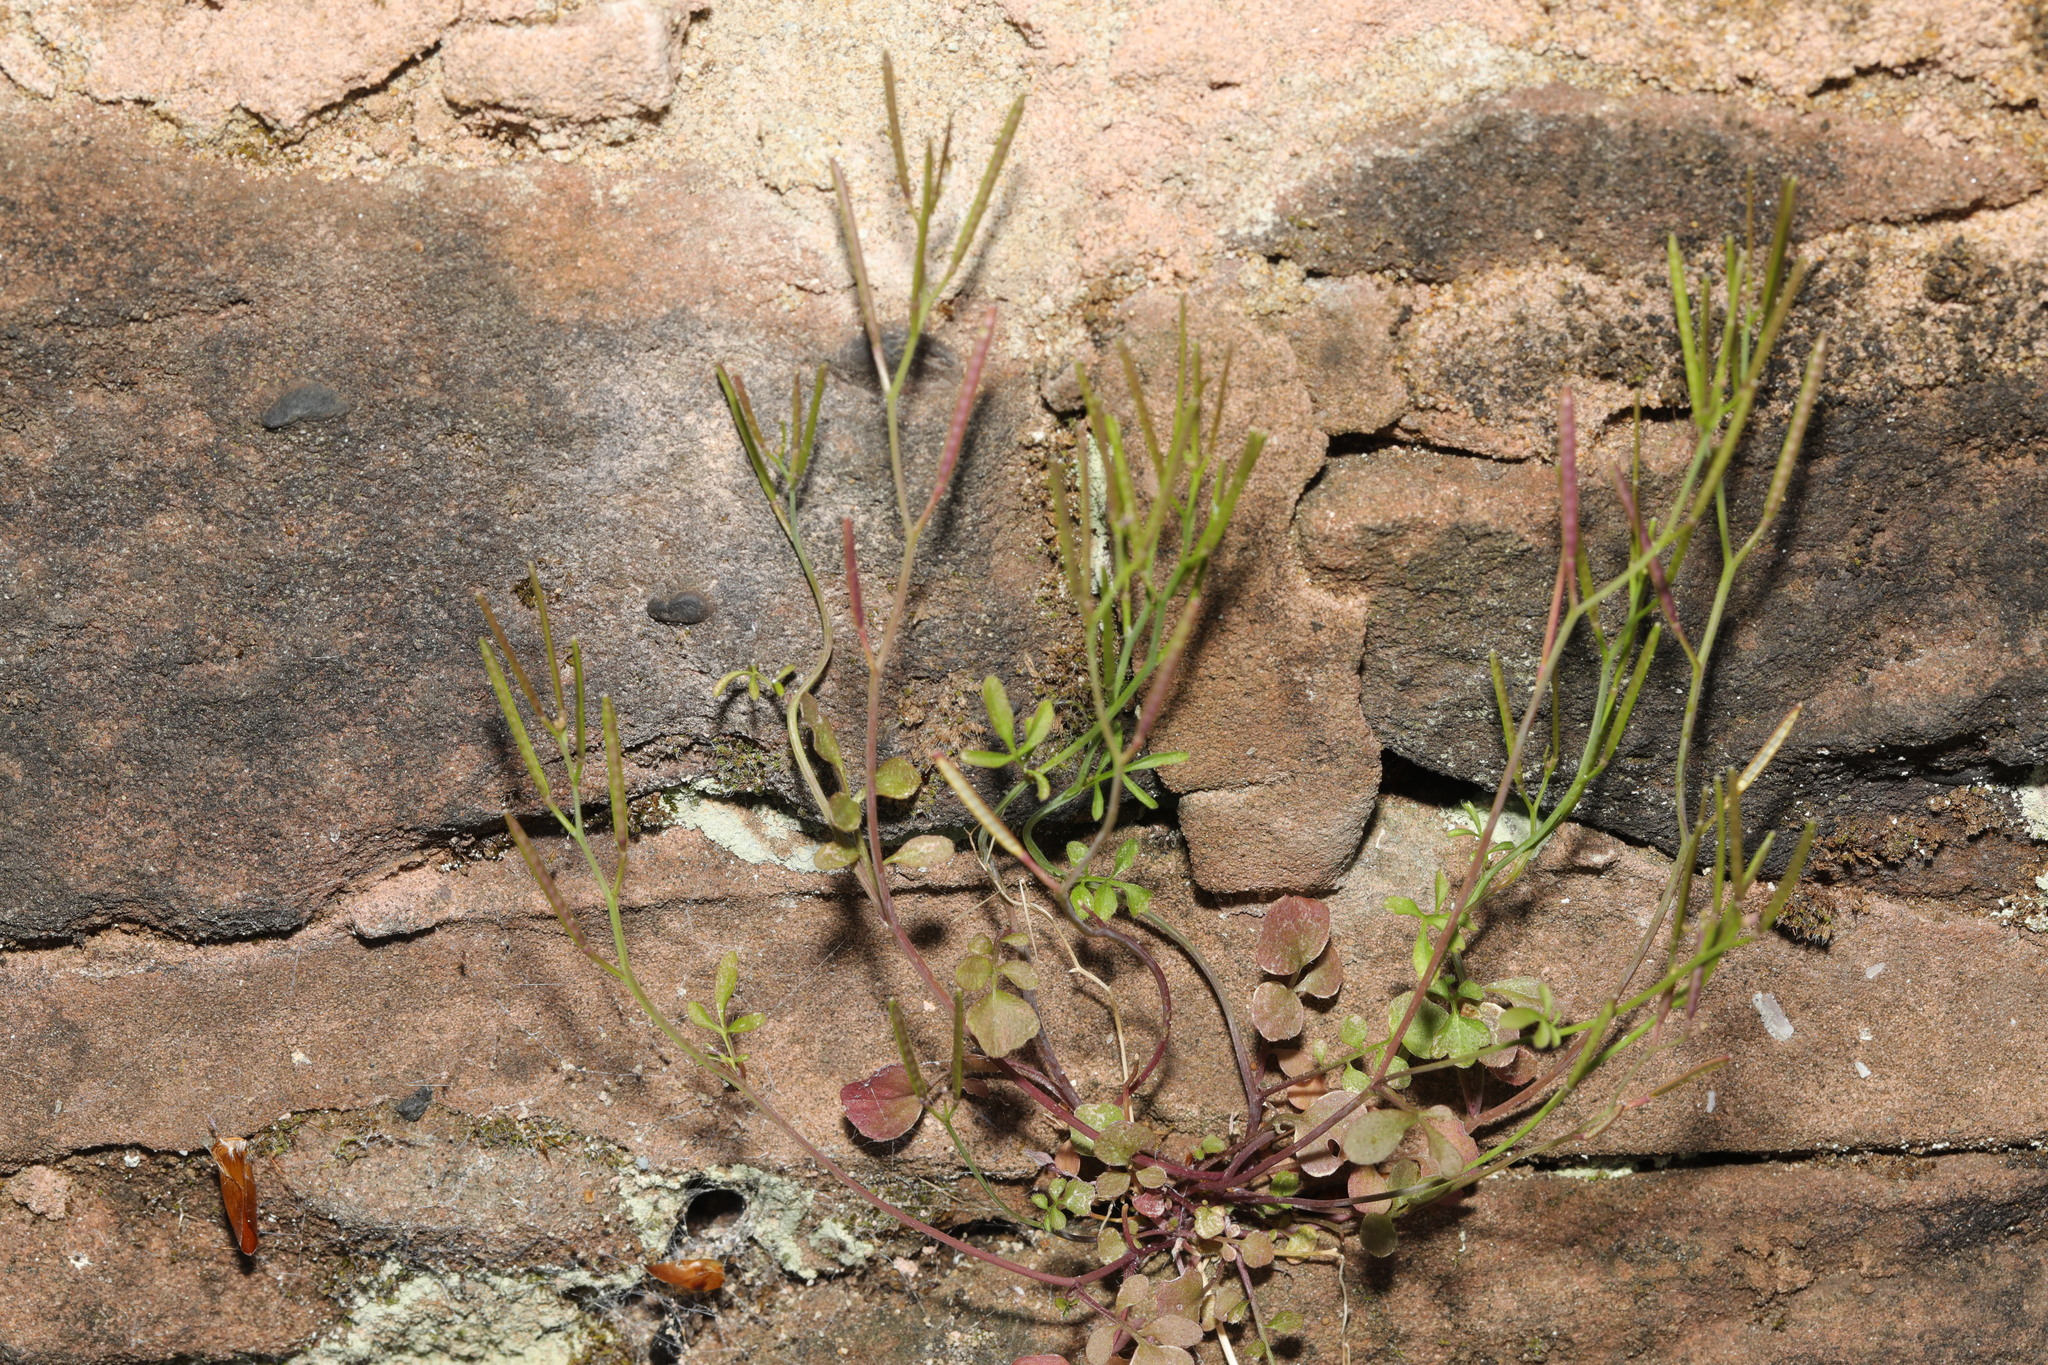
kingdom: Plantae
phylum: Tracheophyta
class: Magnoliopsida
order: Brassicales
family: Brassicaceae
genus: Cardamine
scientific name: Cardamine hirsuta
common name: Hairy bittercress
